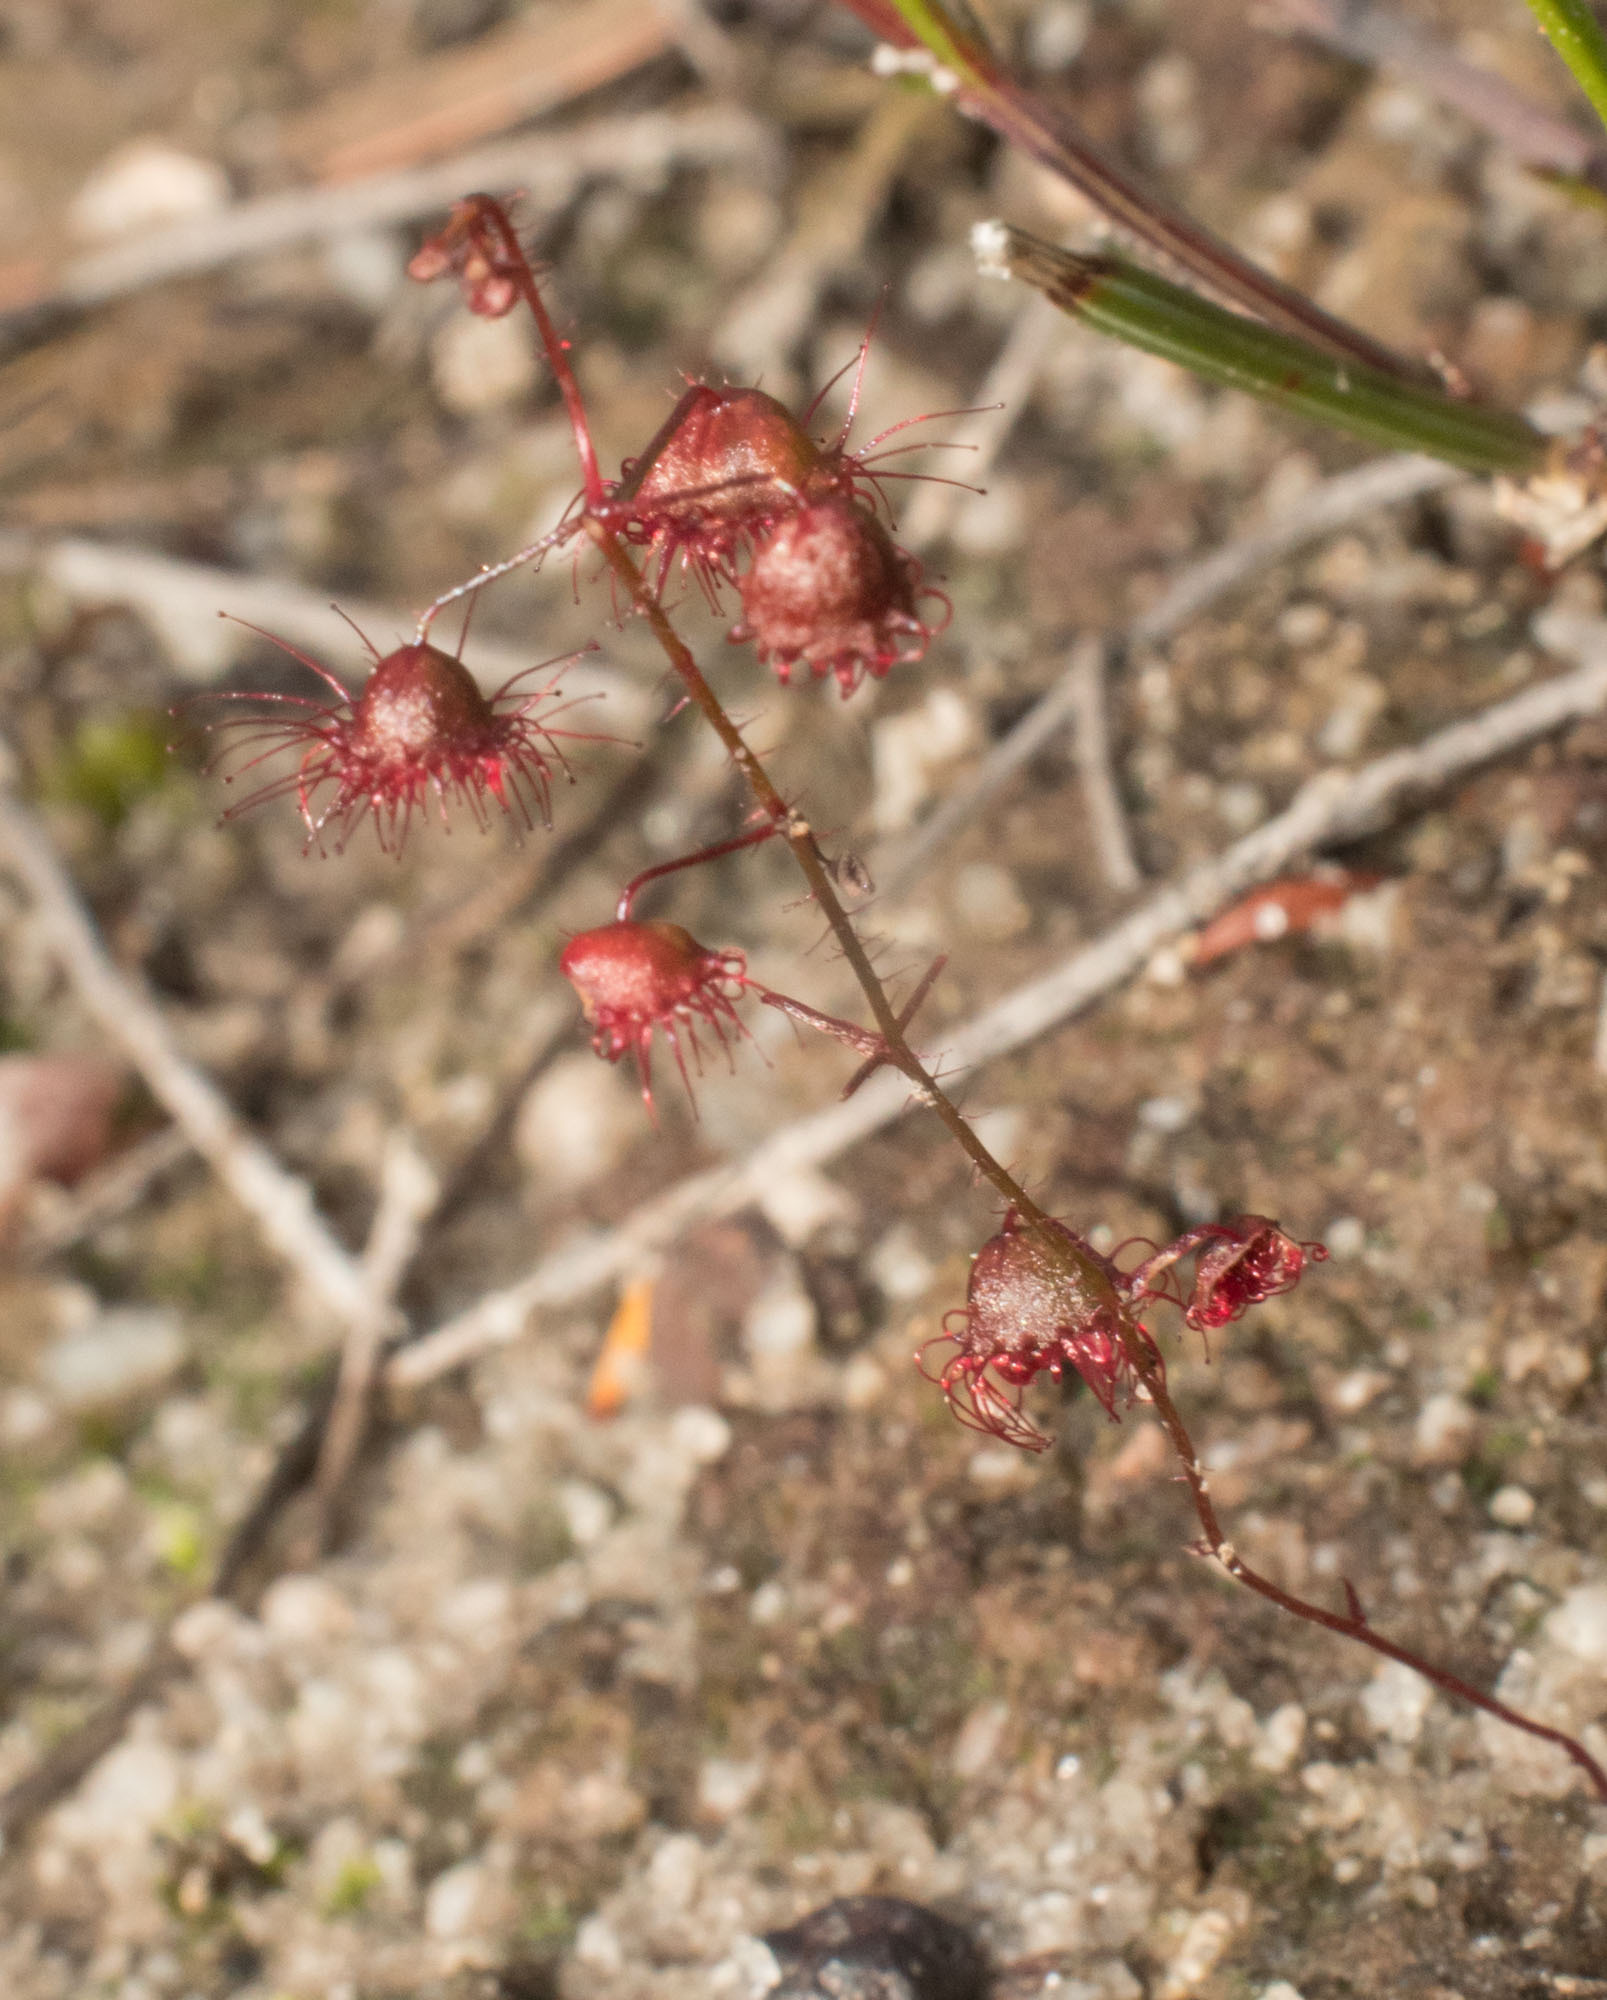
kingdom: Plantae
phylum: Tracheophyta
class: Magnoliopsida
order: Caryophyllales
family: Droseraceae
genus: Drosera
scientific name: Drosera macrantha
